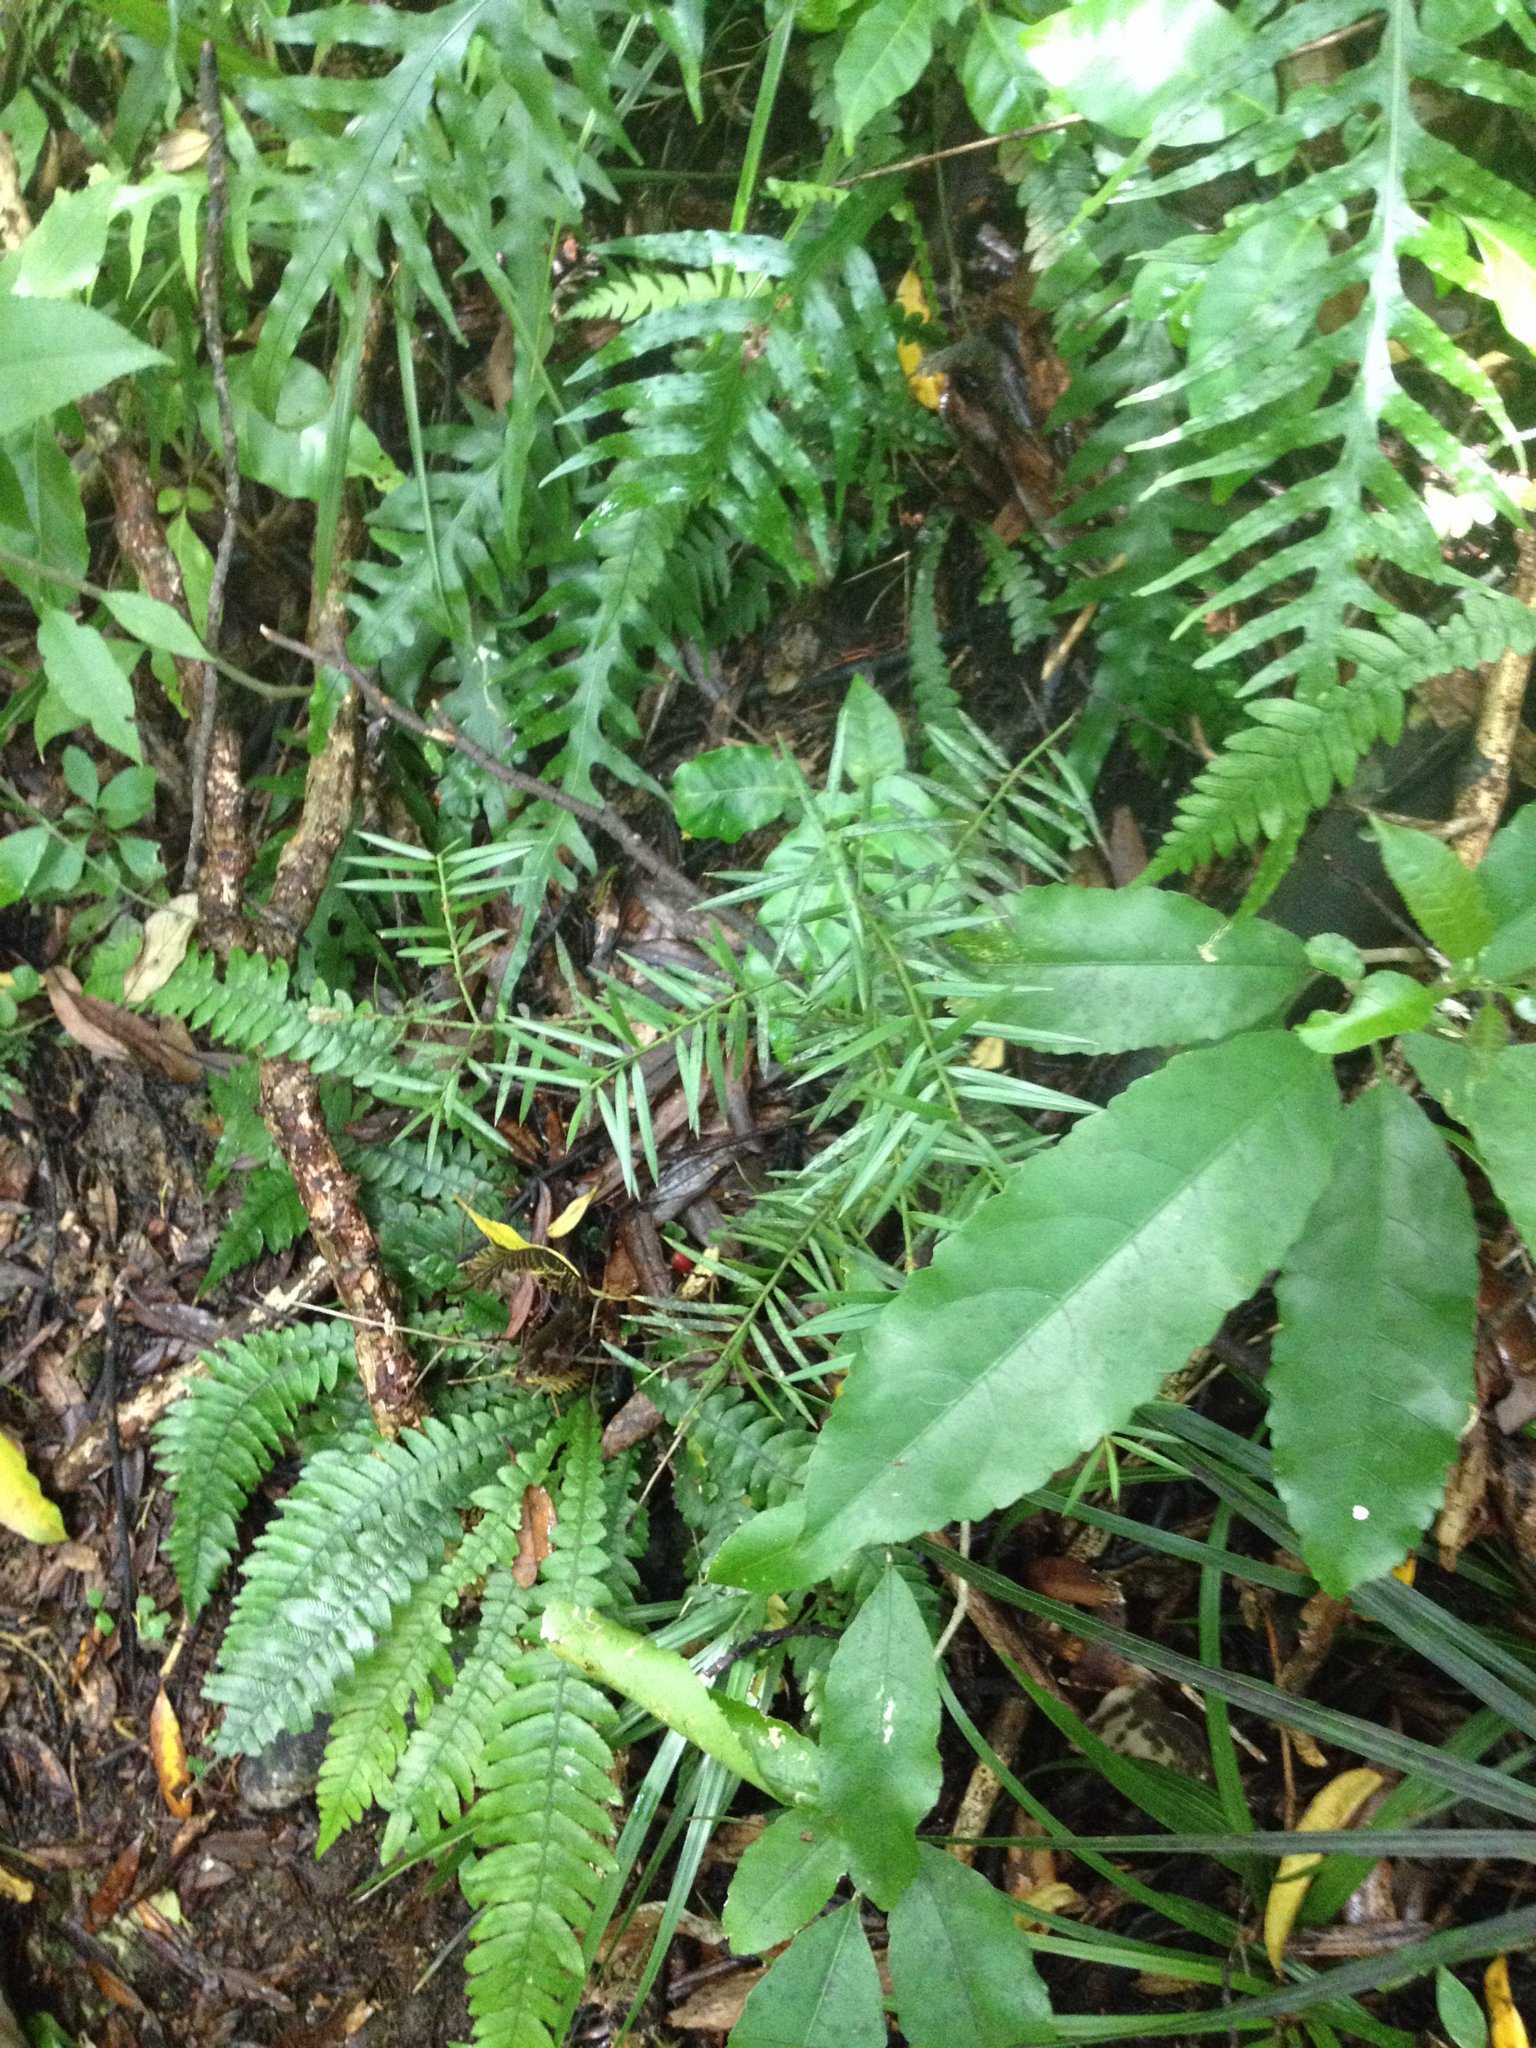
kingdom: Plantae
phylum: Tracheophyta
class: Pinopsida
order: Pinales
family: Podocarpaceae
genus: Podocarpus
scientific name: Podocarpus totara
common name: Totara
